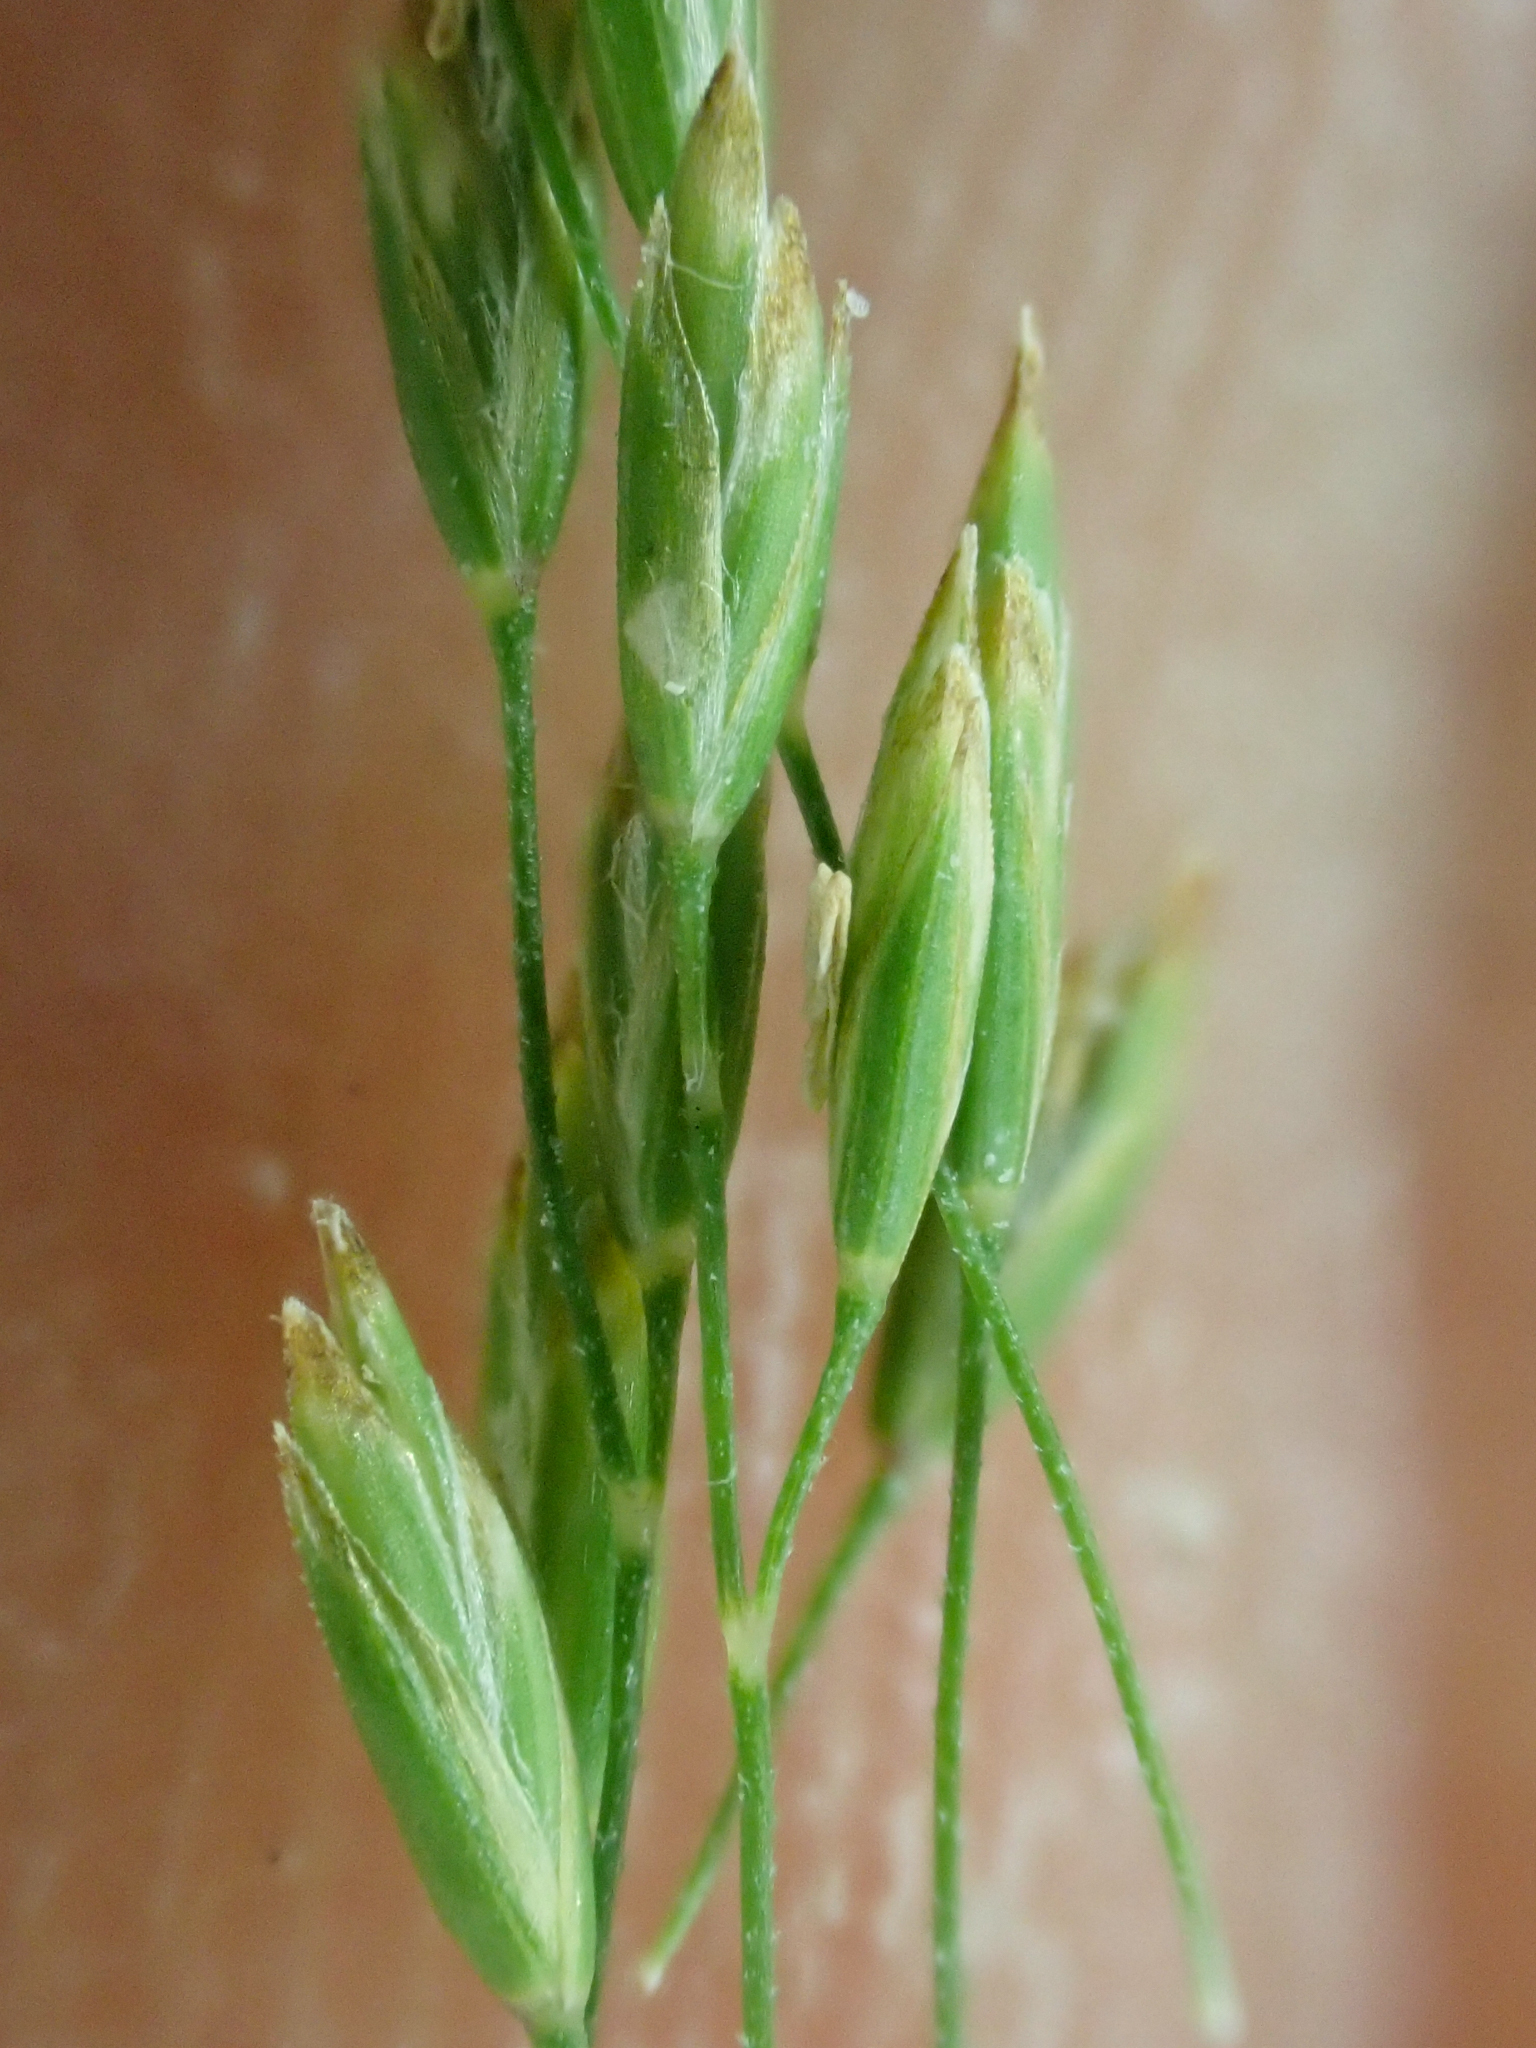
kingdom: Plantae
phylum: Tracheophyta
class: Liliopsida
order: Poales
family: Poaceae
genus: Poa
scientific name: Poa palustris
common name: Swamp meadow-grass
